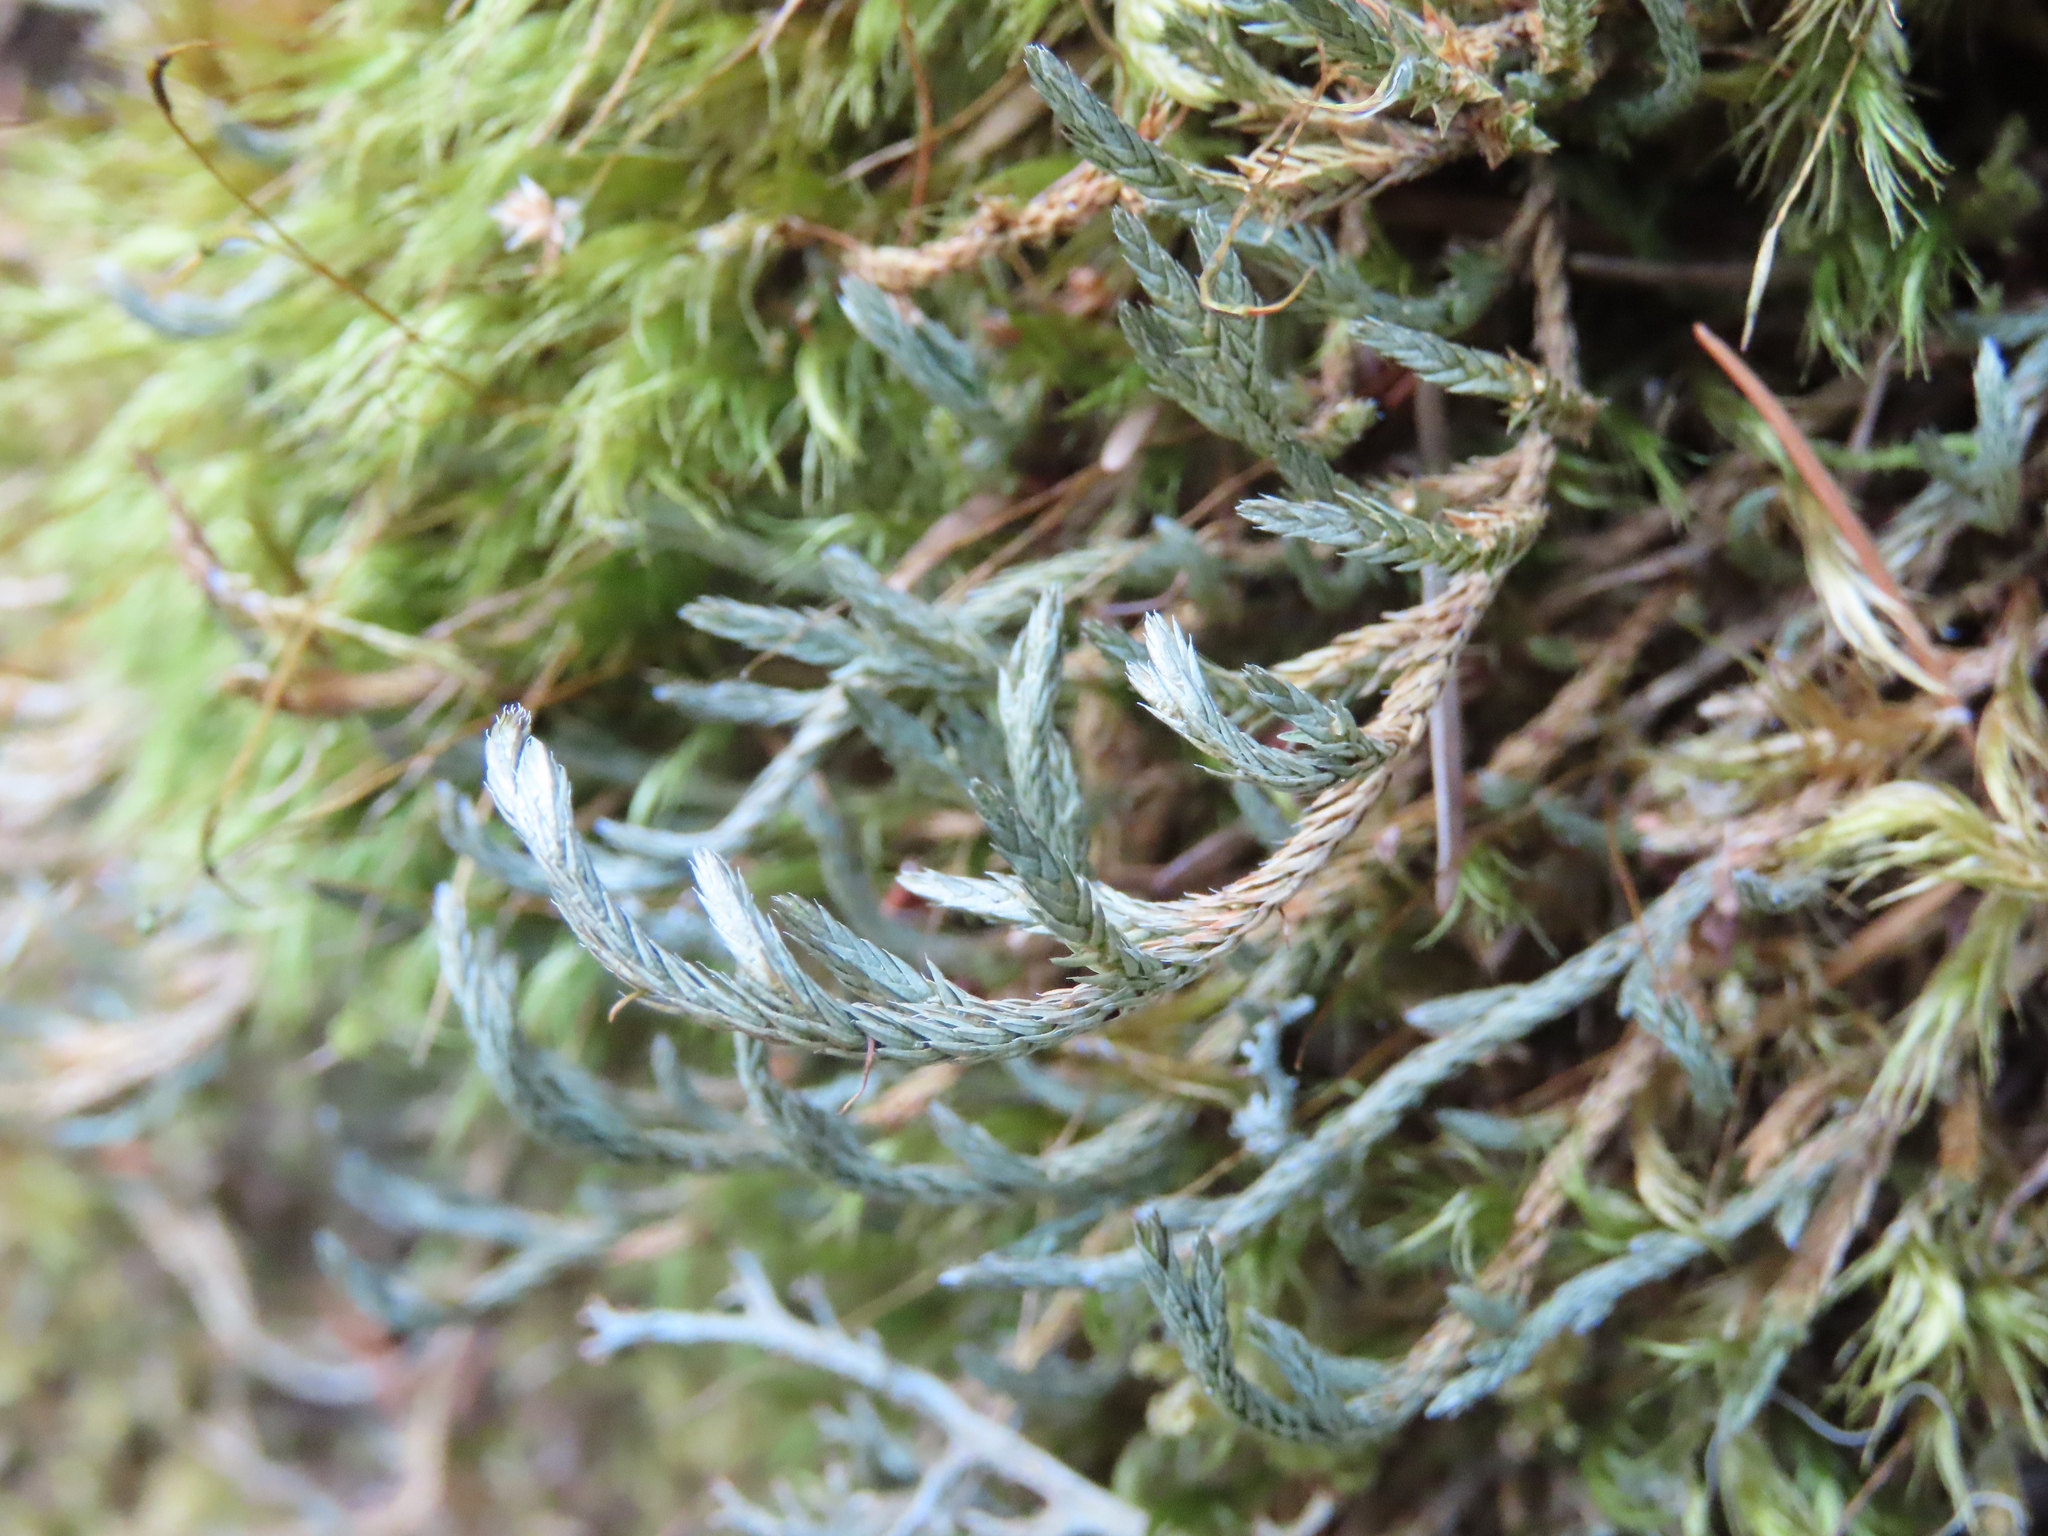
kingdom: Plantae
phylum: Tracheophyta
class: Lycopodiopsida
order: Selaginellales
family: Selaginellaceae
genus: Selaginella
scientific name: Selaginella wallacei
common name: Wallace's selaginella
